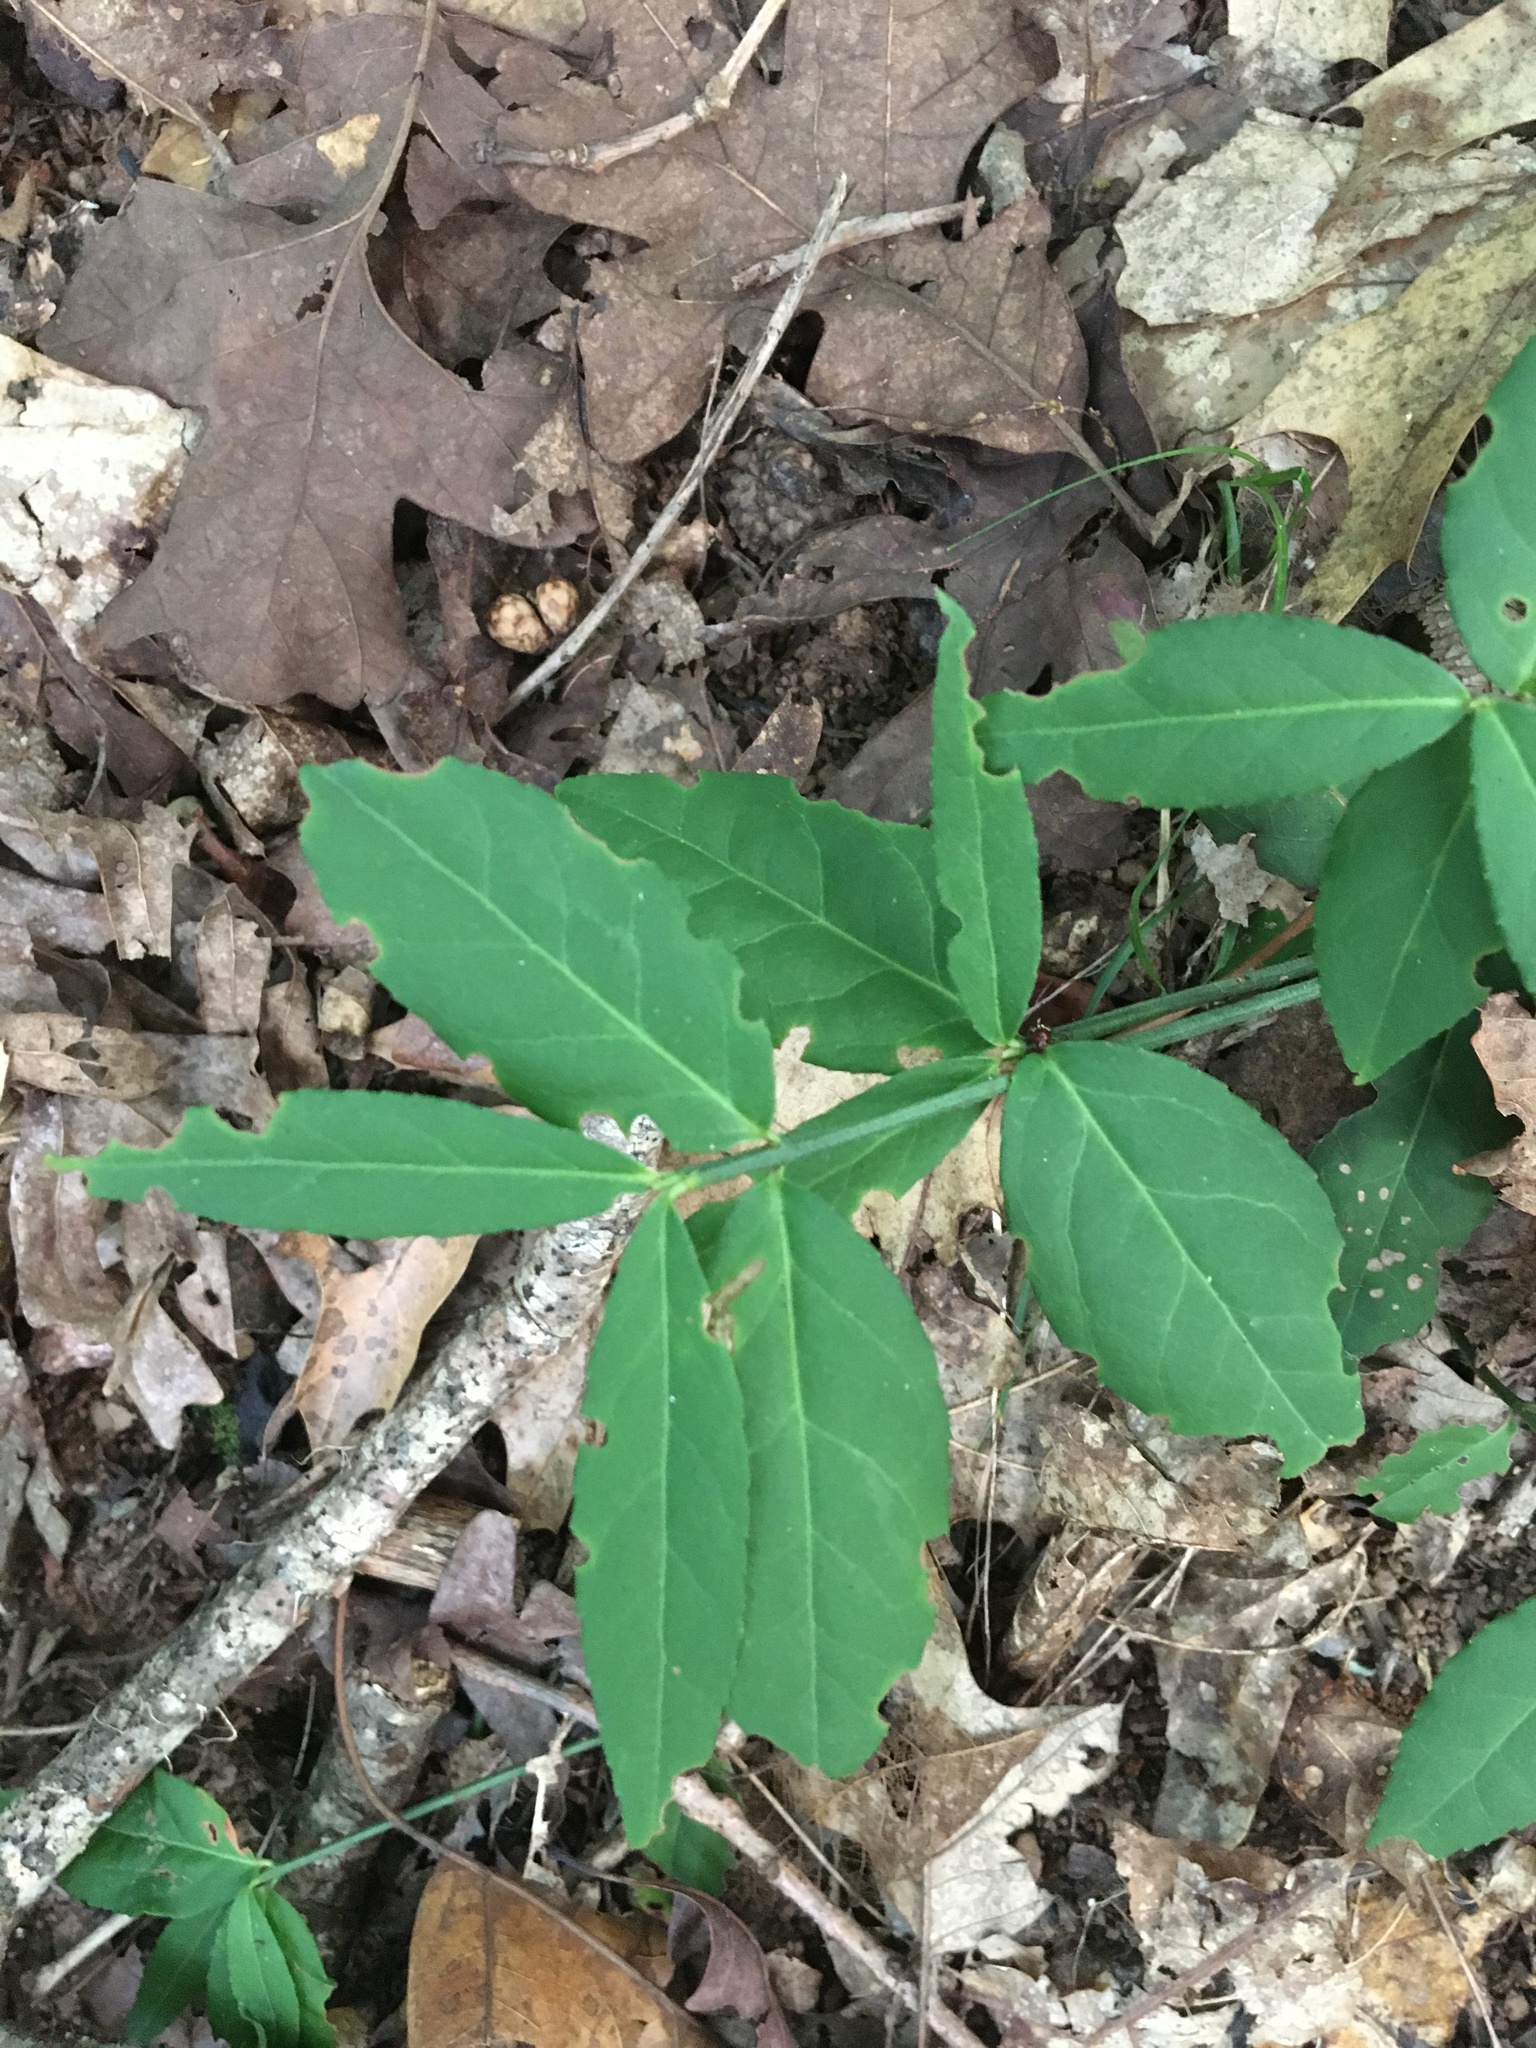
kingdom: Plantae
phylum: Tracheophyta
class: Magnoliopsida
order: Celastrales
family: Celastraceae
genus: Euonymus
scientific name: Euonymus americanus
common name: Bursting-heart
